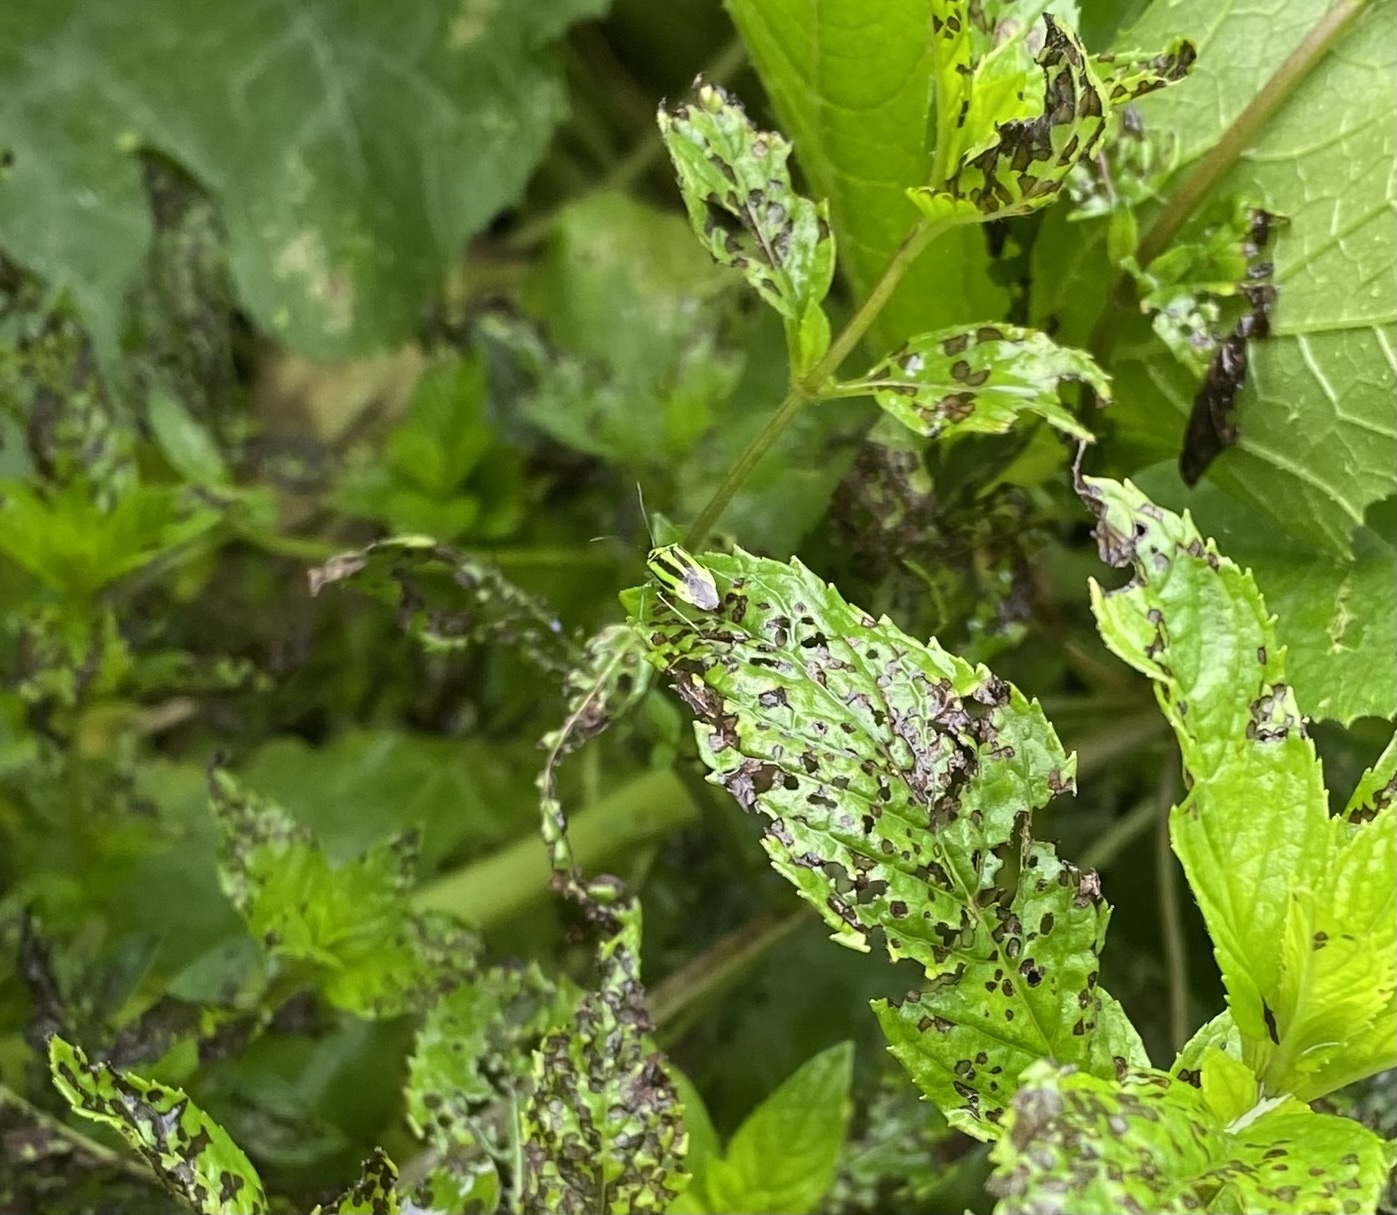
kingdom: Animalia
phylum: Arthropoda
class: Insecta
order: Hemiptera
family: Miridae
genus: Poecilocapsus
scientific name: Poecilocapsus lineatus
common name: Four-lined plant bug
